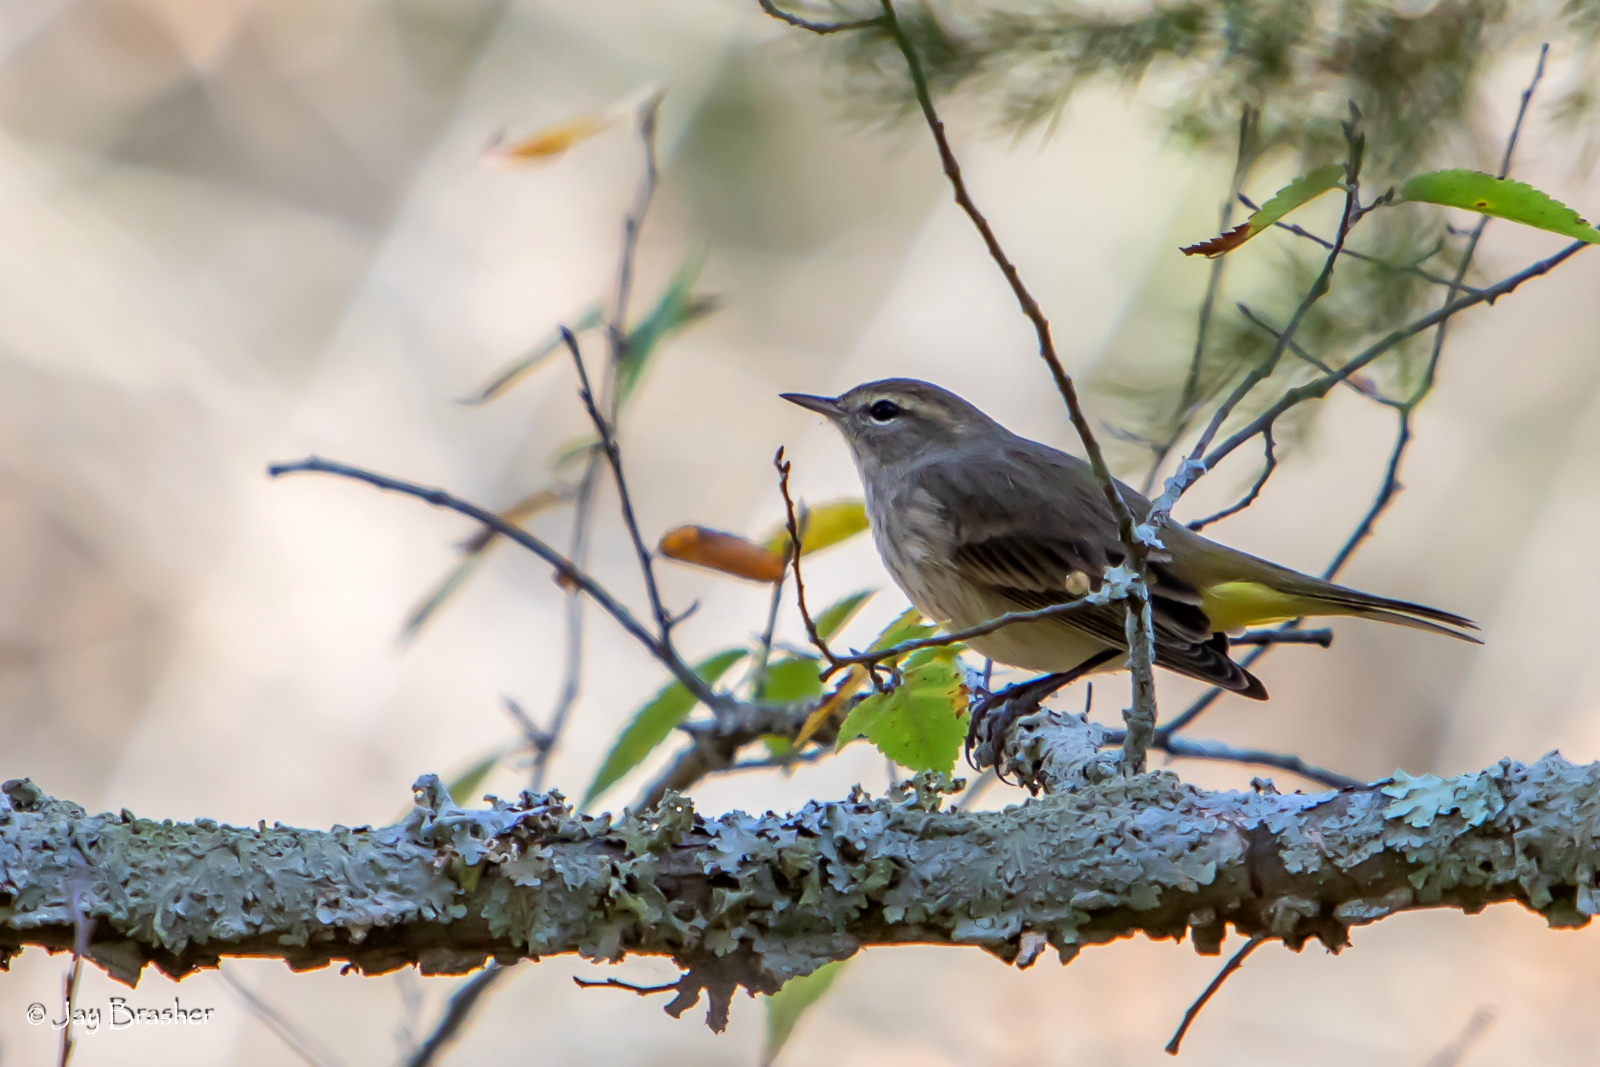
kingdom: Animalia
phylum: Chordata
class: Aves
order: Passeriformes
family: Parulidae
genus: Setophaga
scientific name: Setophaga palmarum
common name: Palm warbler
